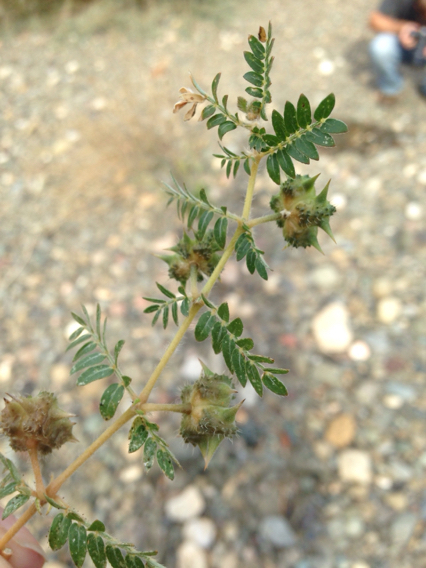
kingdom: Plantae
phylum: Tracheophyta
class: Magnoliopsida
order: Zygophyllales
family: Zygophyllaceae
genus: Tribulus
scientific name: Tribulus terrestris
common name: Puncturevine
